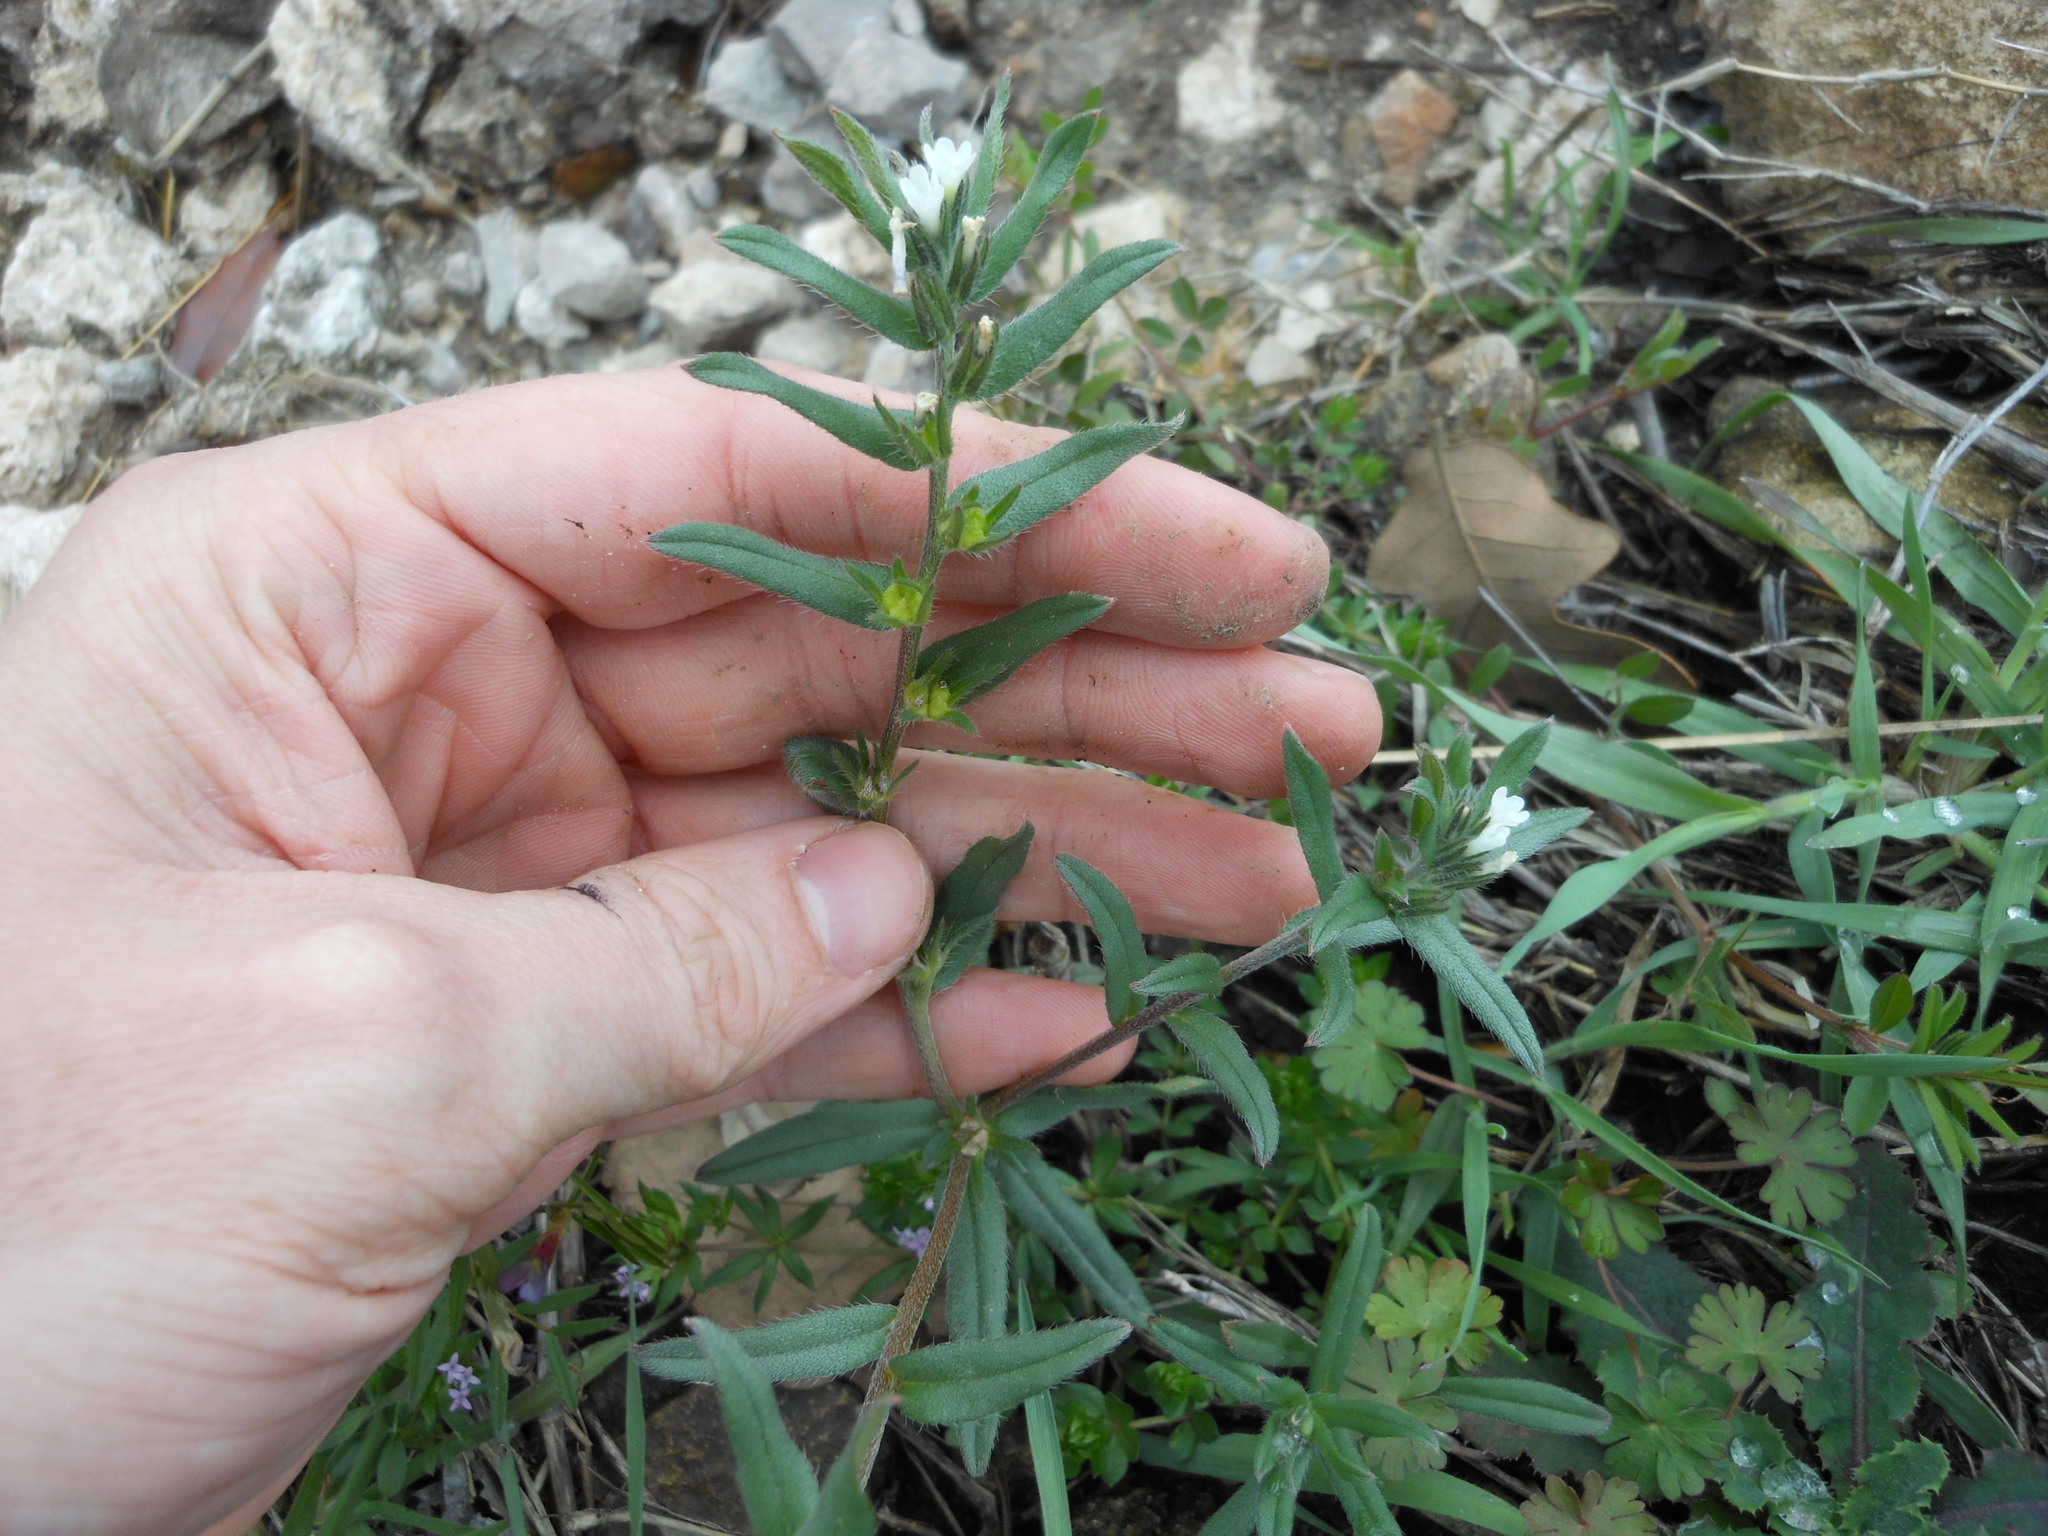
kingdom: Plantae
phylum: Tracheophyta
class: Magnoliopsida
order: Boraginales
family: Boraginaceae
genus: Buglossoides
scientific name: Buglossoides arvensis
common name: Corn gromwell
